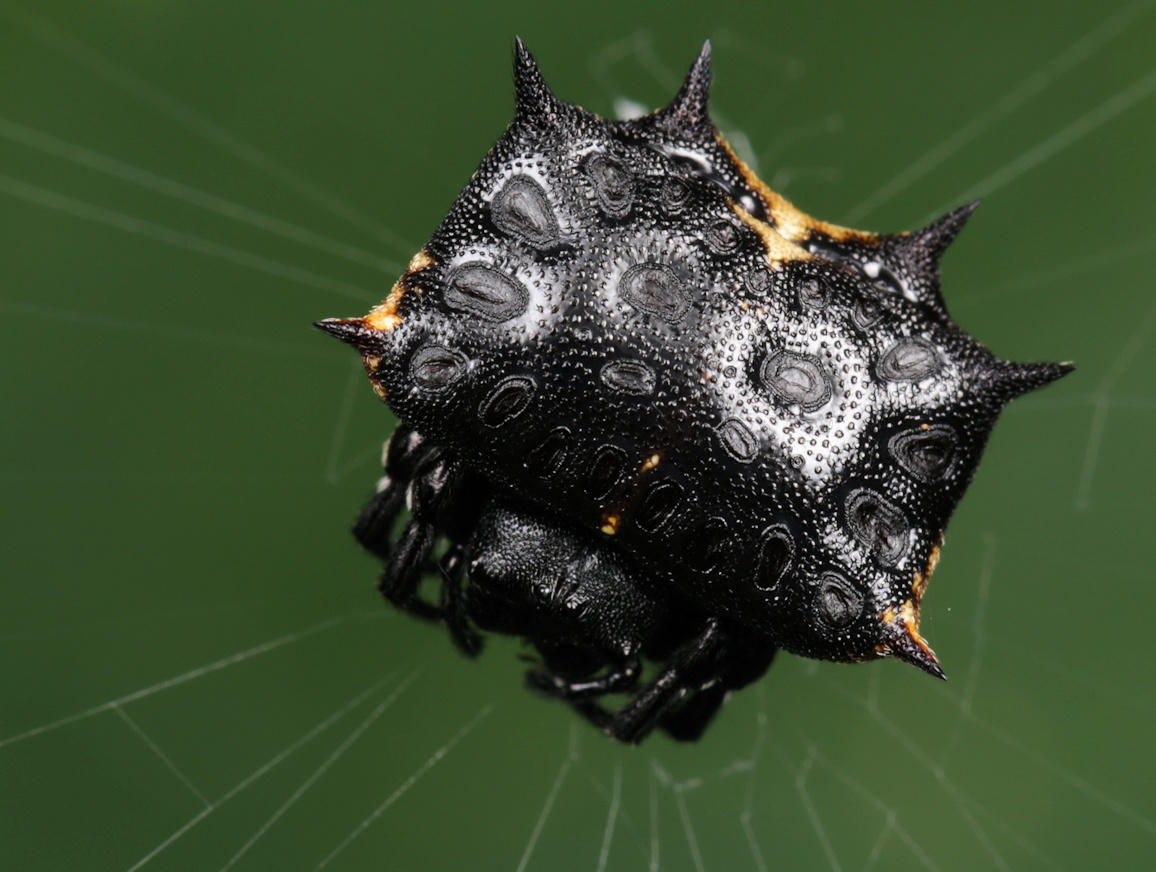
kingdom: Animalia
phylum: Arthropoda
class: Arachnida
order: Araneae
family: Araneidae
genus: Isoxya
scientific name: Isoxya tabulata
